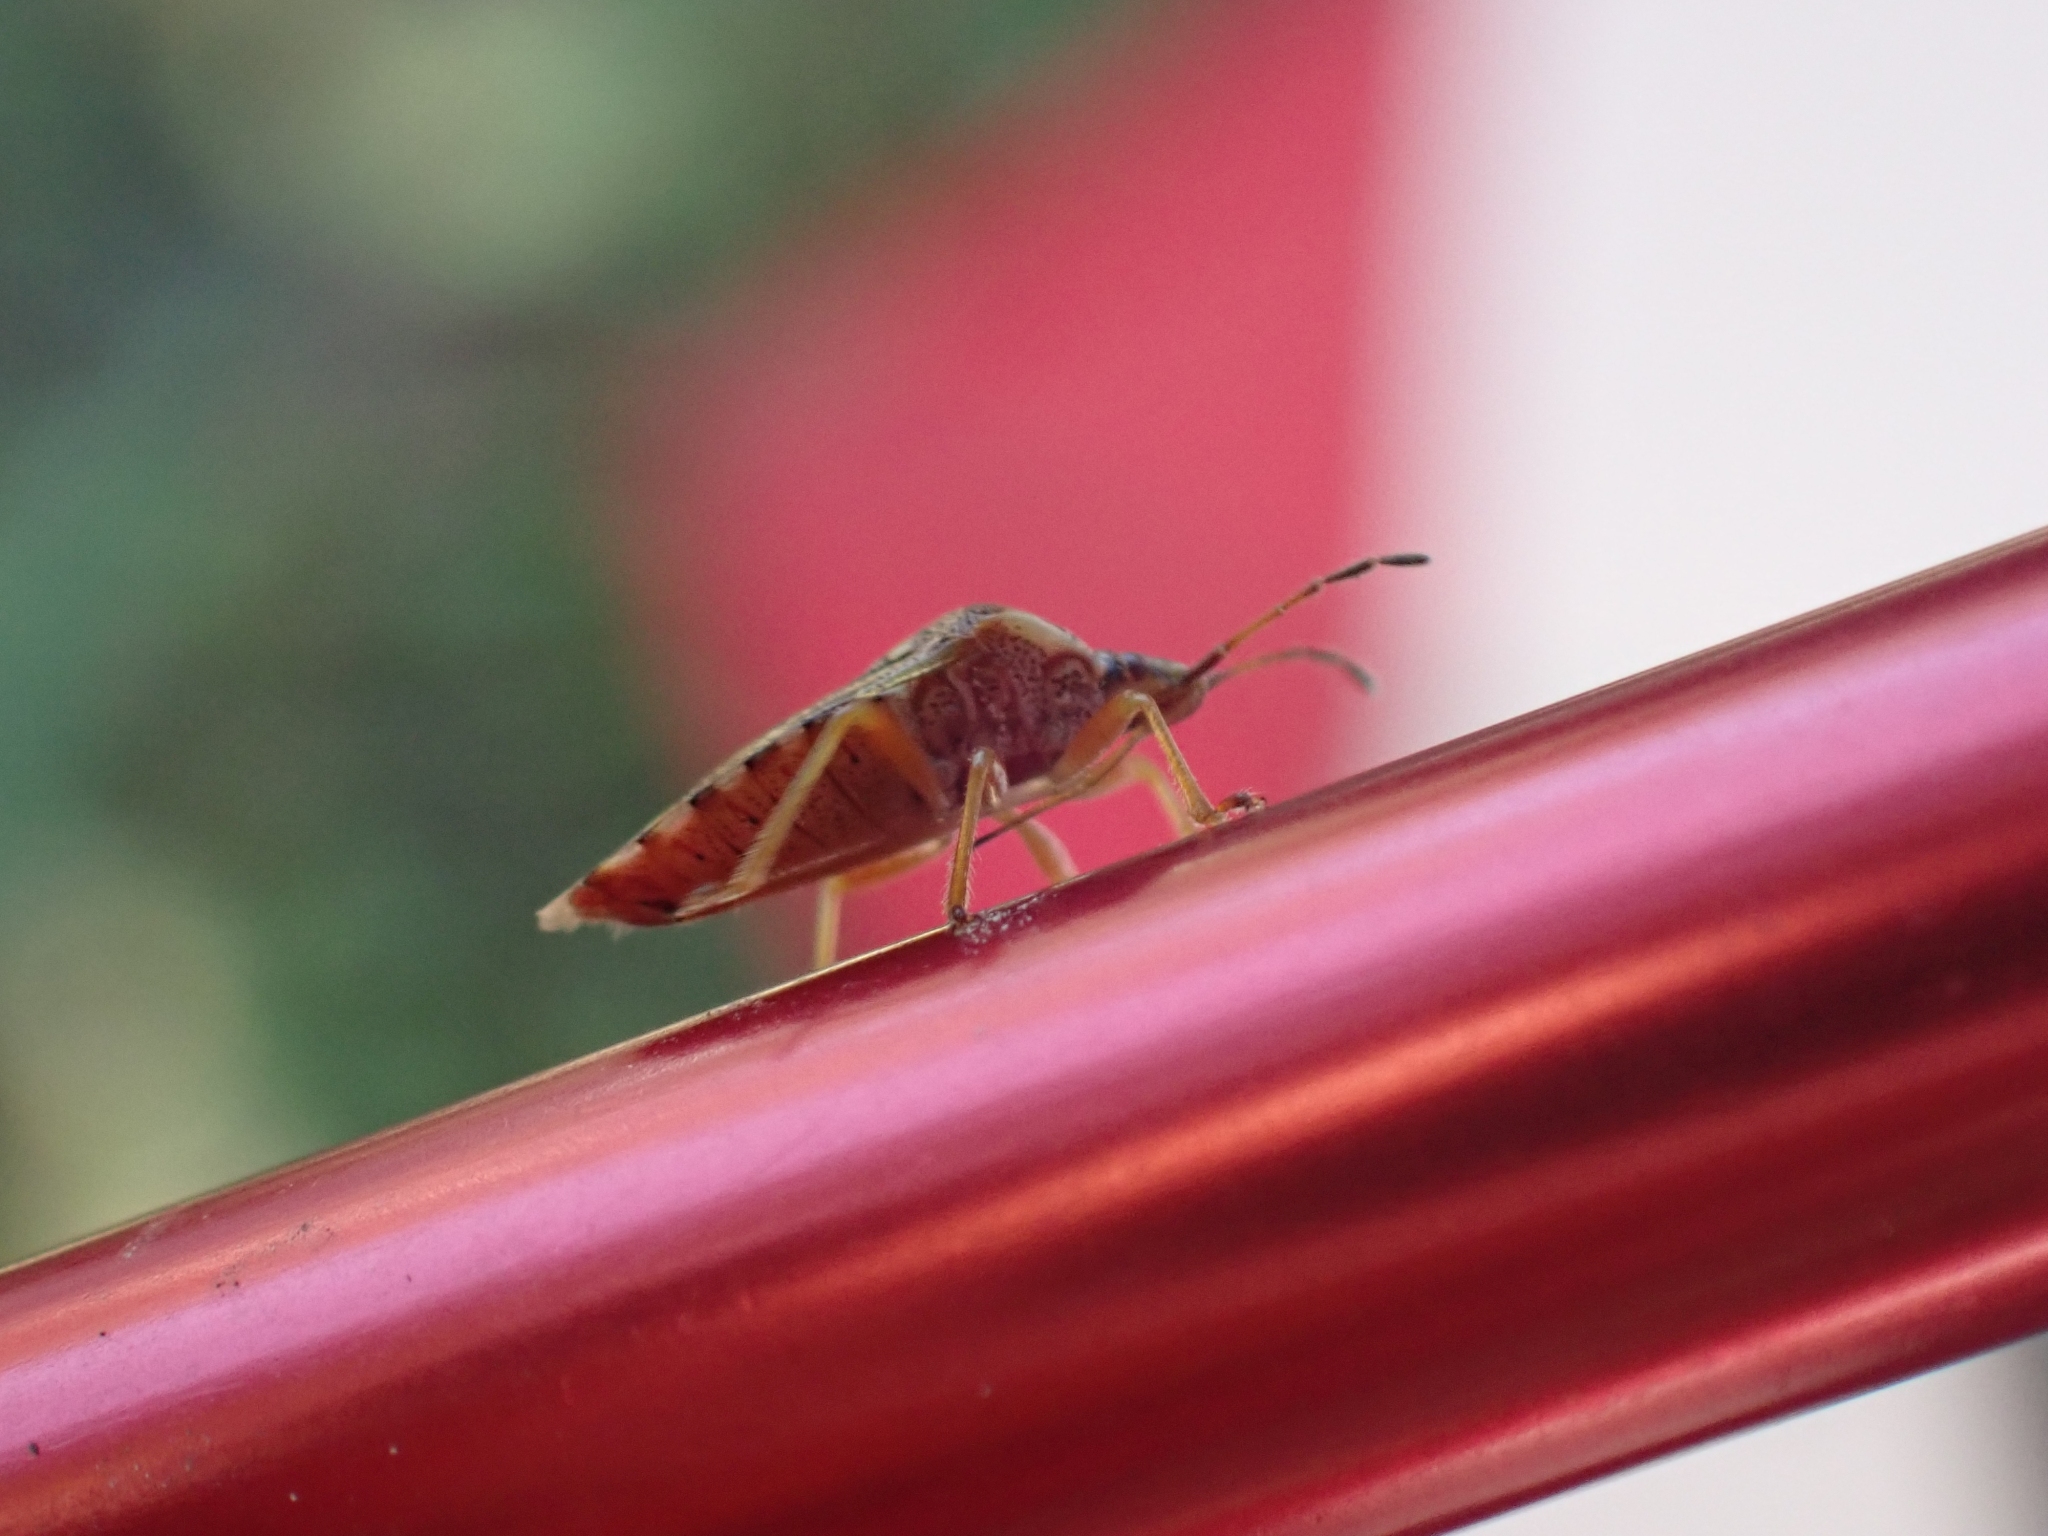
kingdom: Animalia
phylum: Arthropoda
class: Insecta
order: Hemiptera
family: Acanthosomatidae
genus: Elasmucha
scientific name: Elasmucha lateralis
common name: Shield bug
